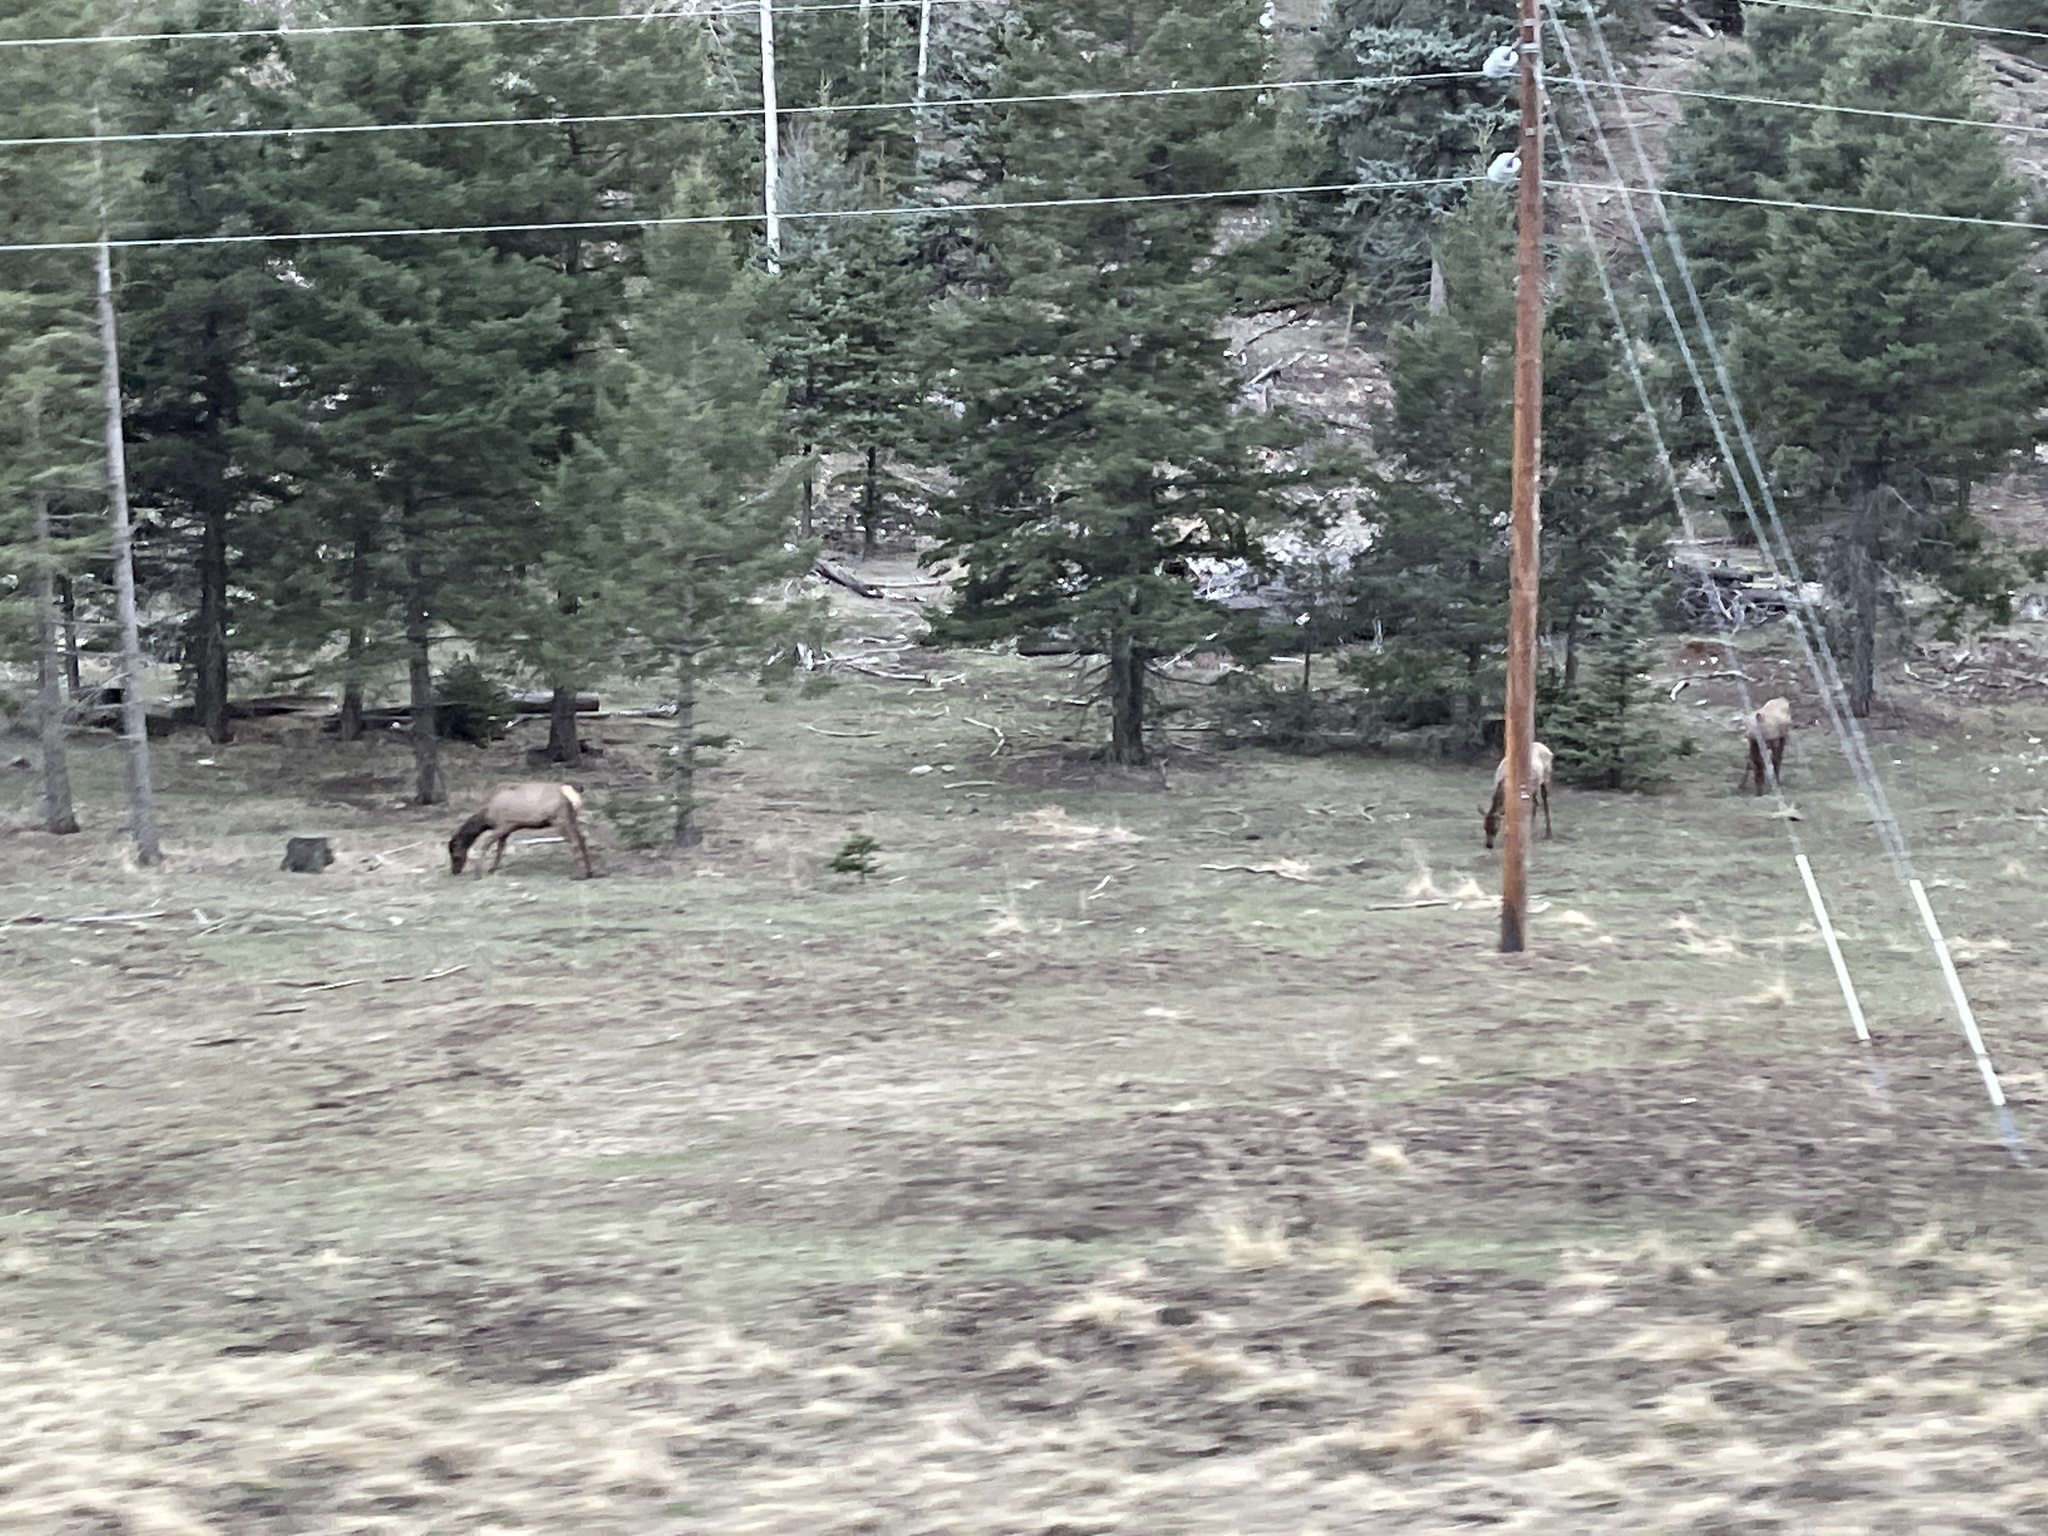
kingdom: Animalia
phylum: Chordata
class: Mammalia
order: Artiodactyla
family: Cervidae
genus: Cervus
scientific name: Cervus elaphus
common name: Red deer
